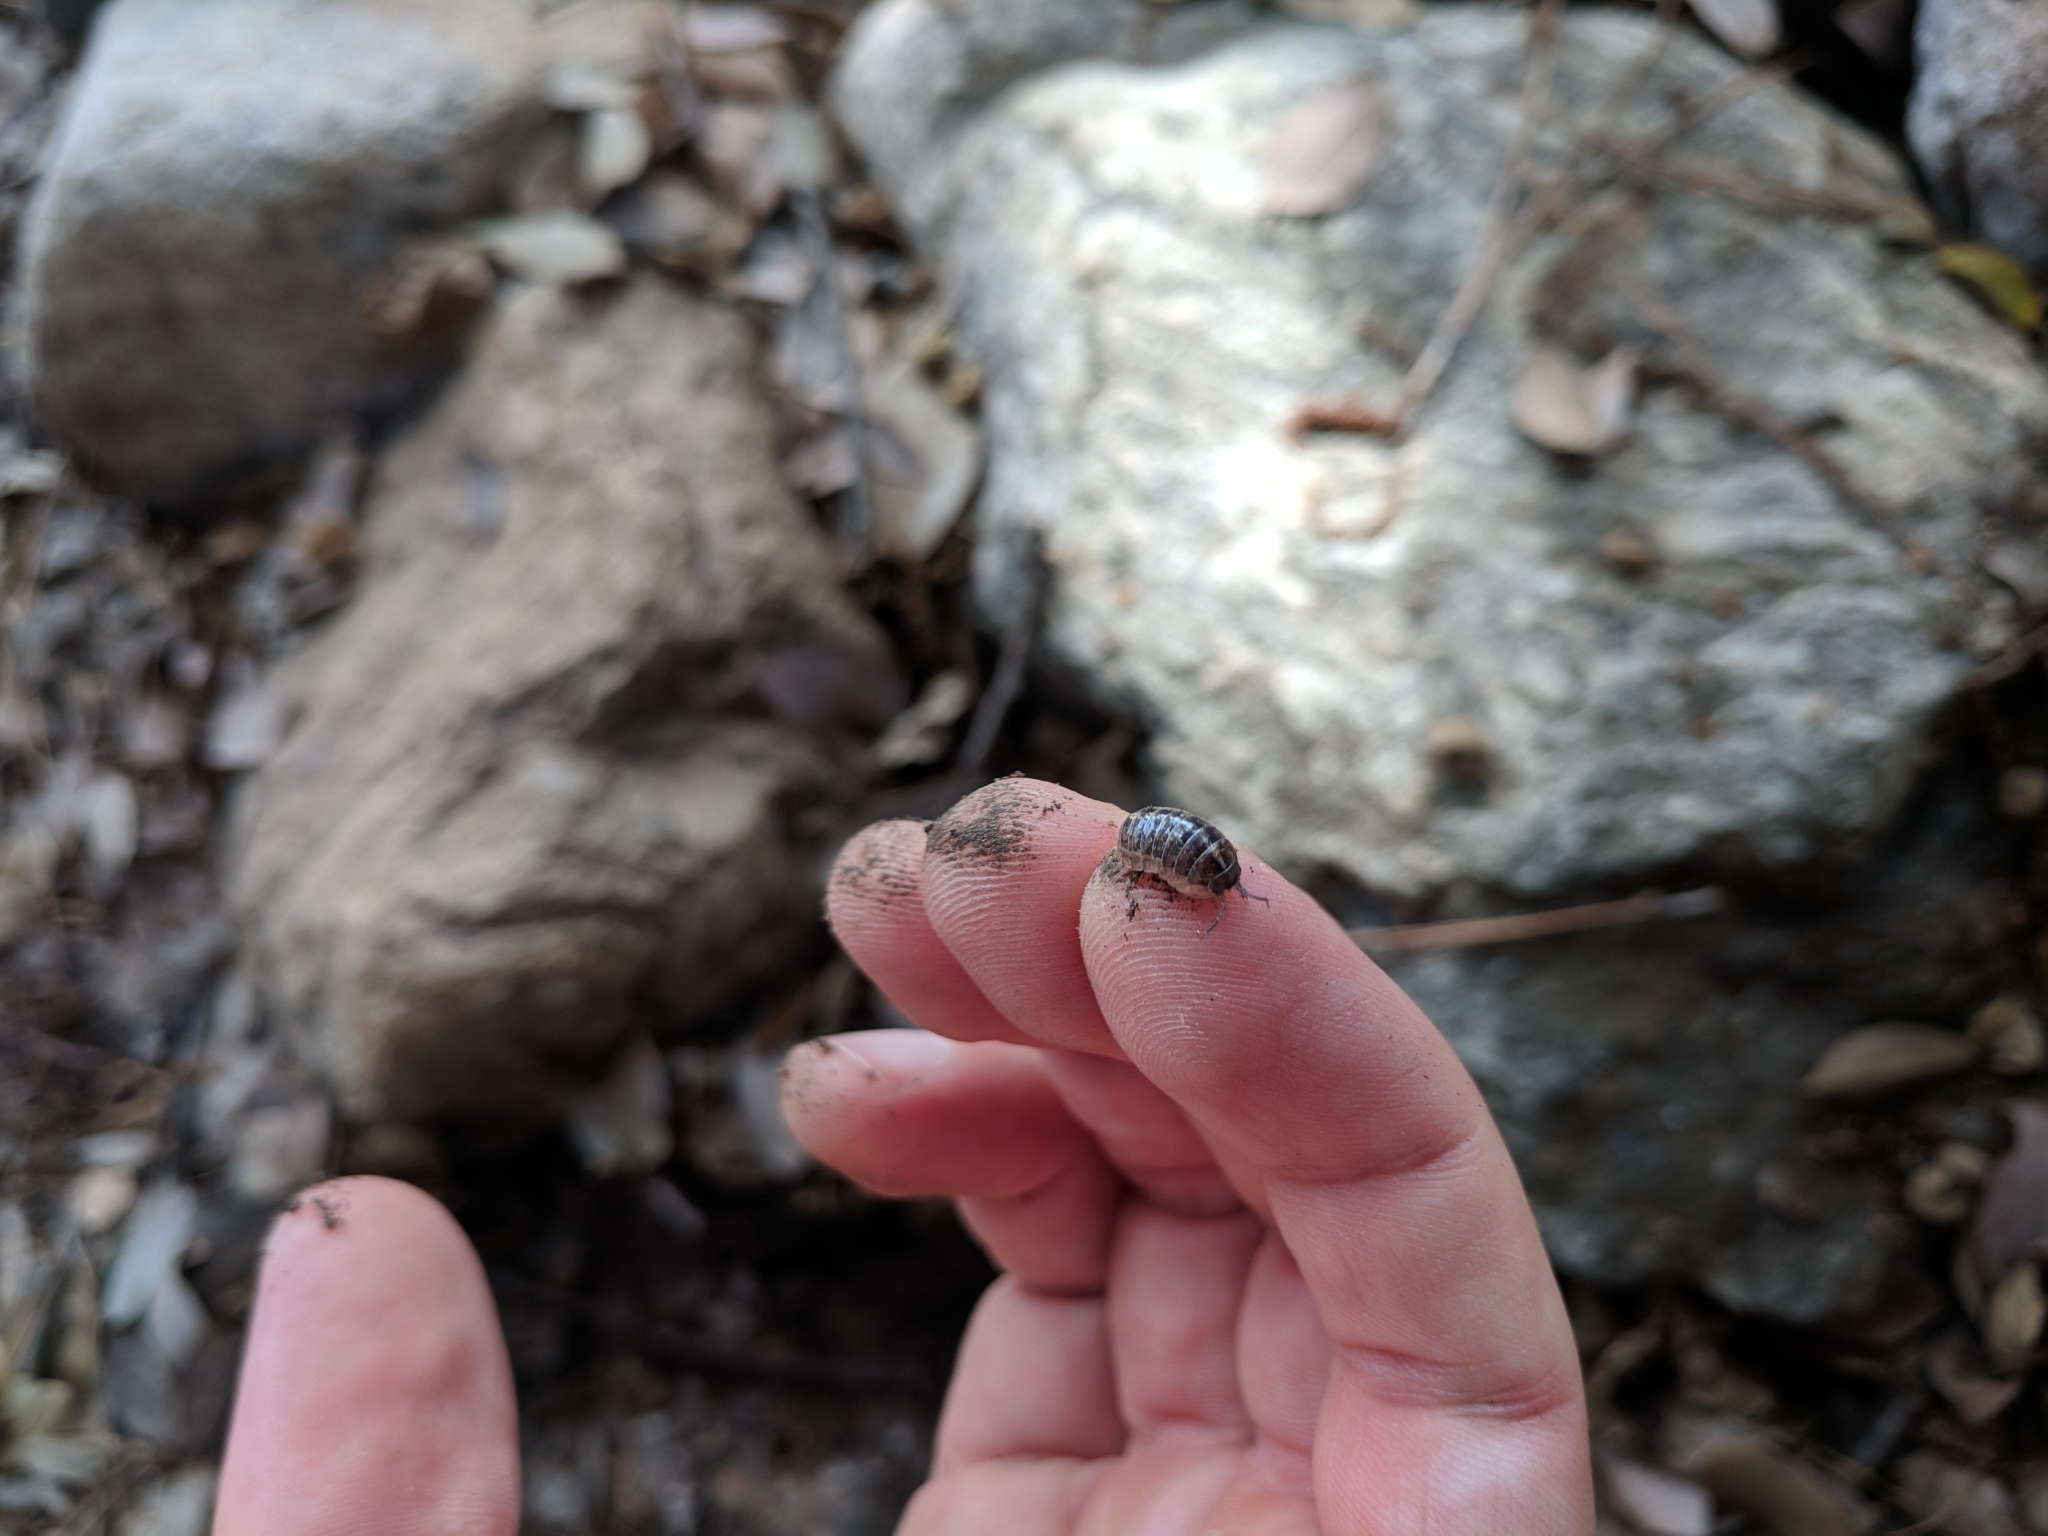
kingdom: Animalia
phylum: Arthropoda
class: Malacostraca
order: Isopoda
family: Armadillidiidae
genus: Armadillidium
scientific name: Armadillidium vulgare
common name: Common pill woodlouse
